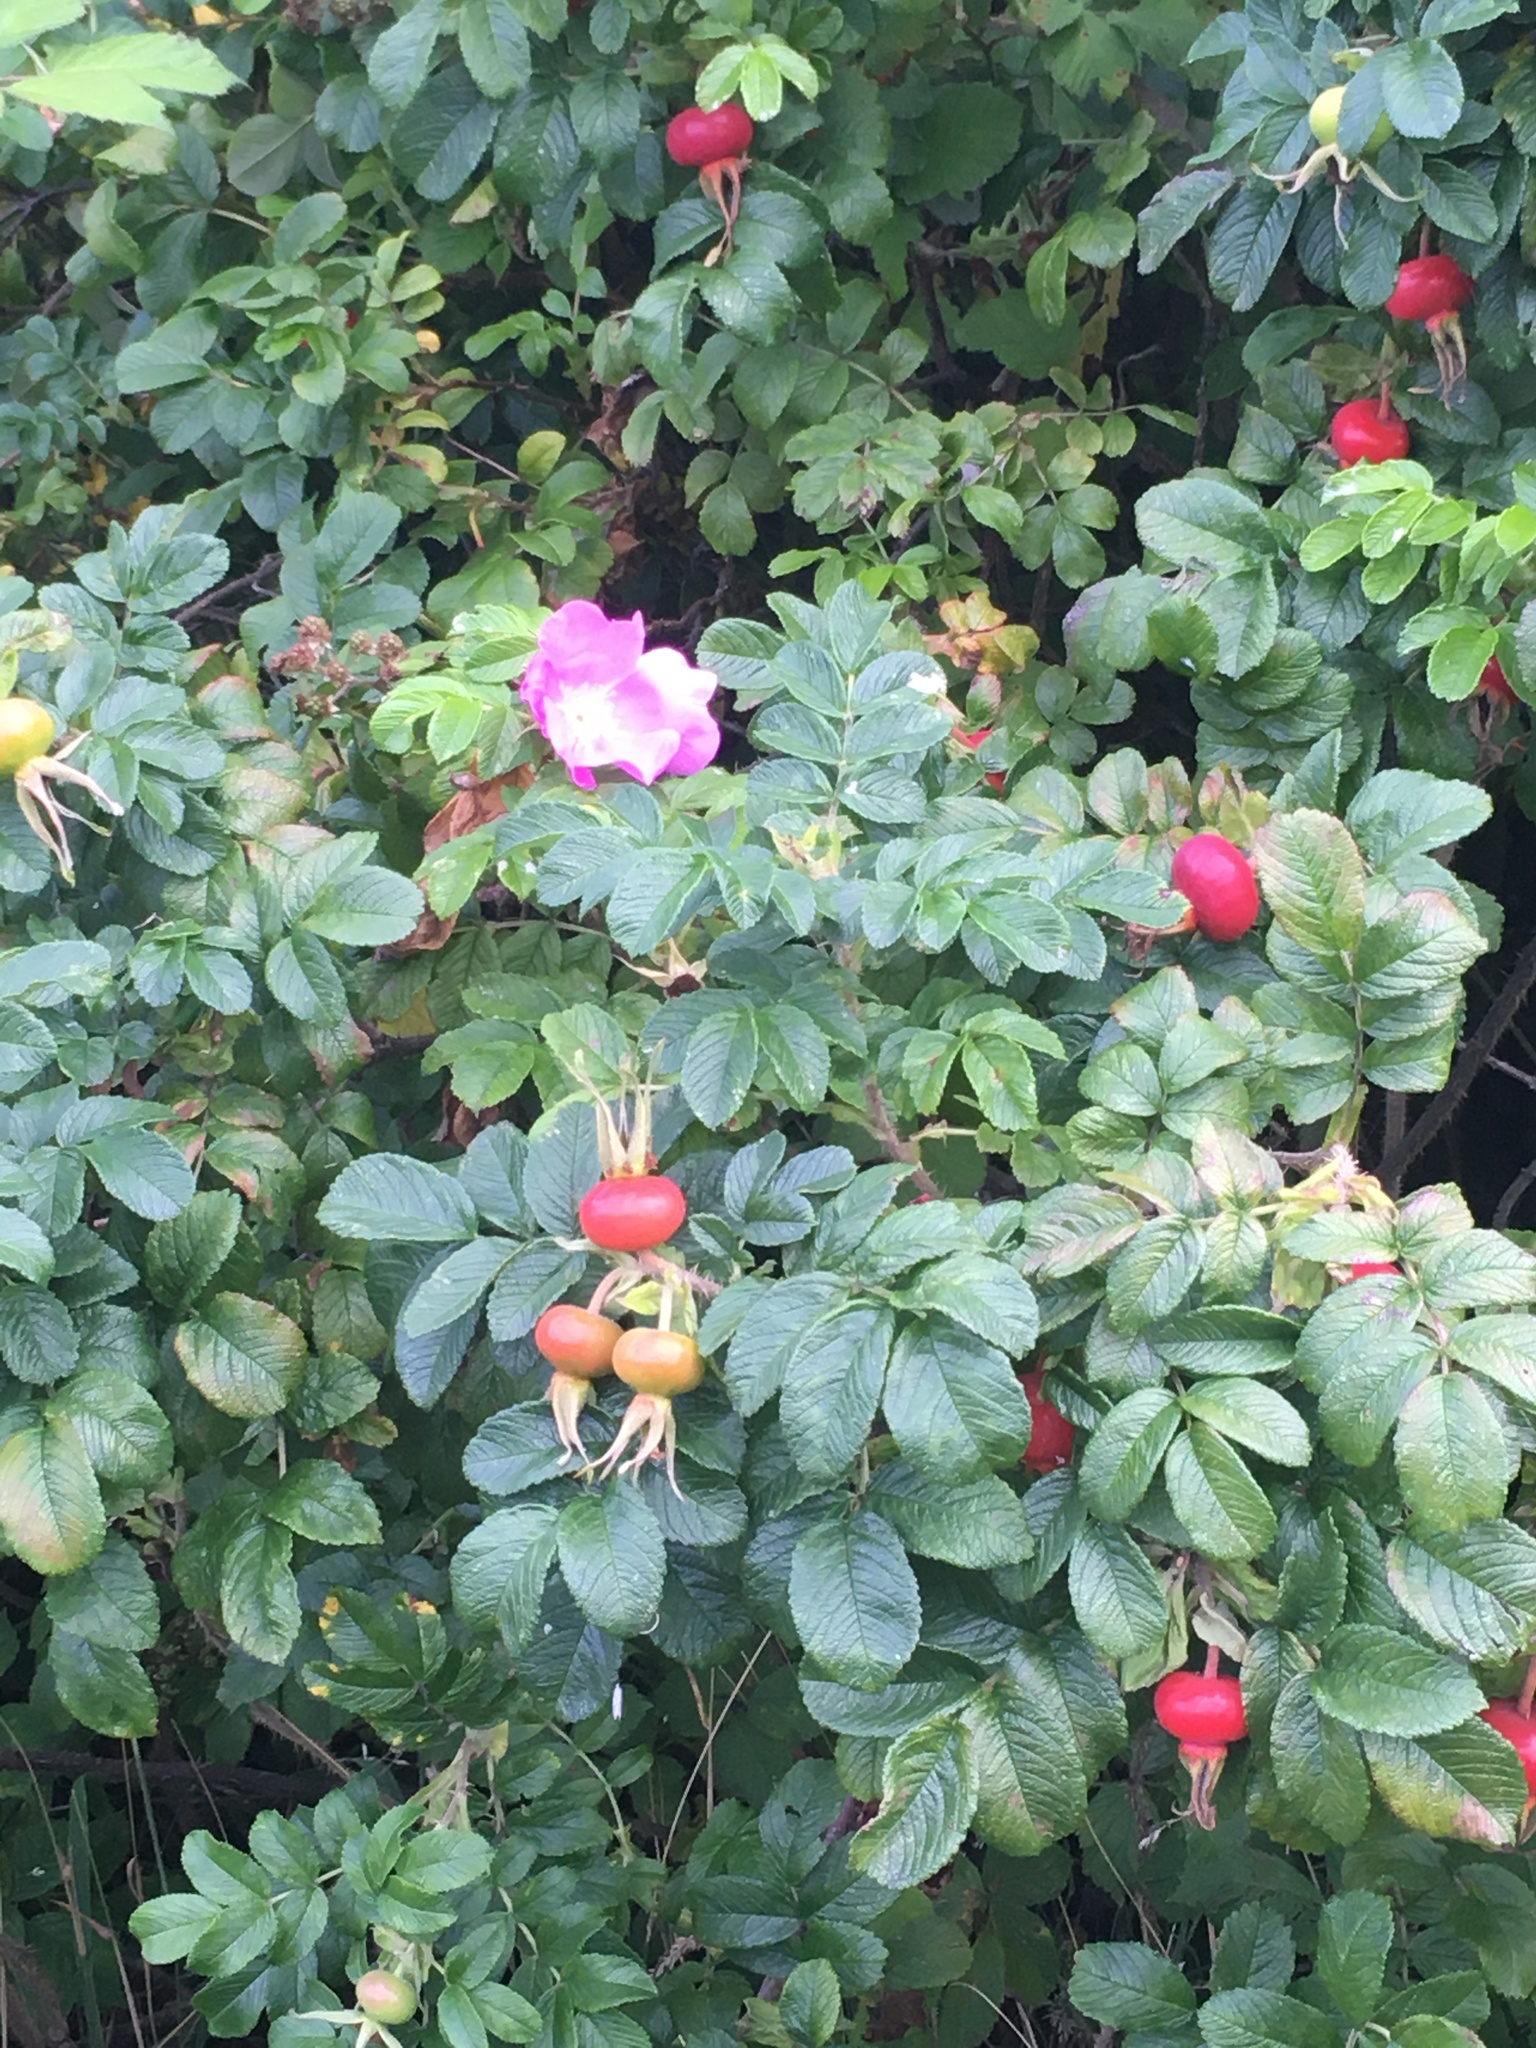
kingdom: Plantae
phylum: Tracheophyta
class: Magnoliopsida
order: Rosales
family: Rosaceae
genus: Rosa
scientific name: Rosa rugosa
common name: Japanese rose
